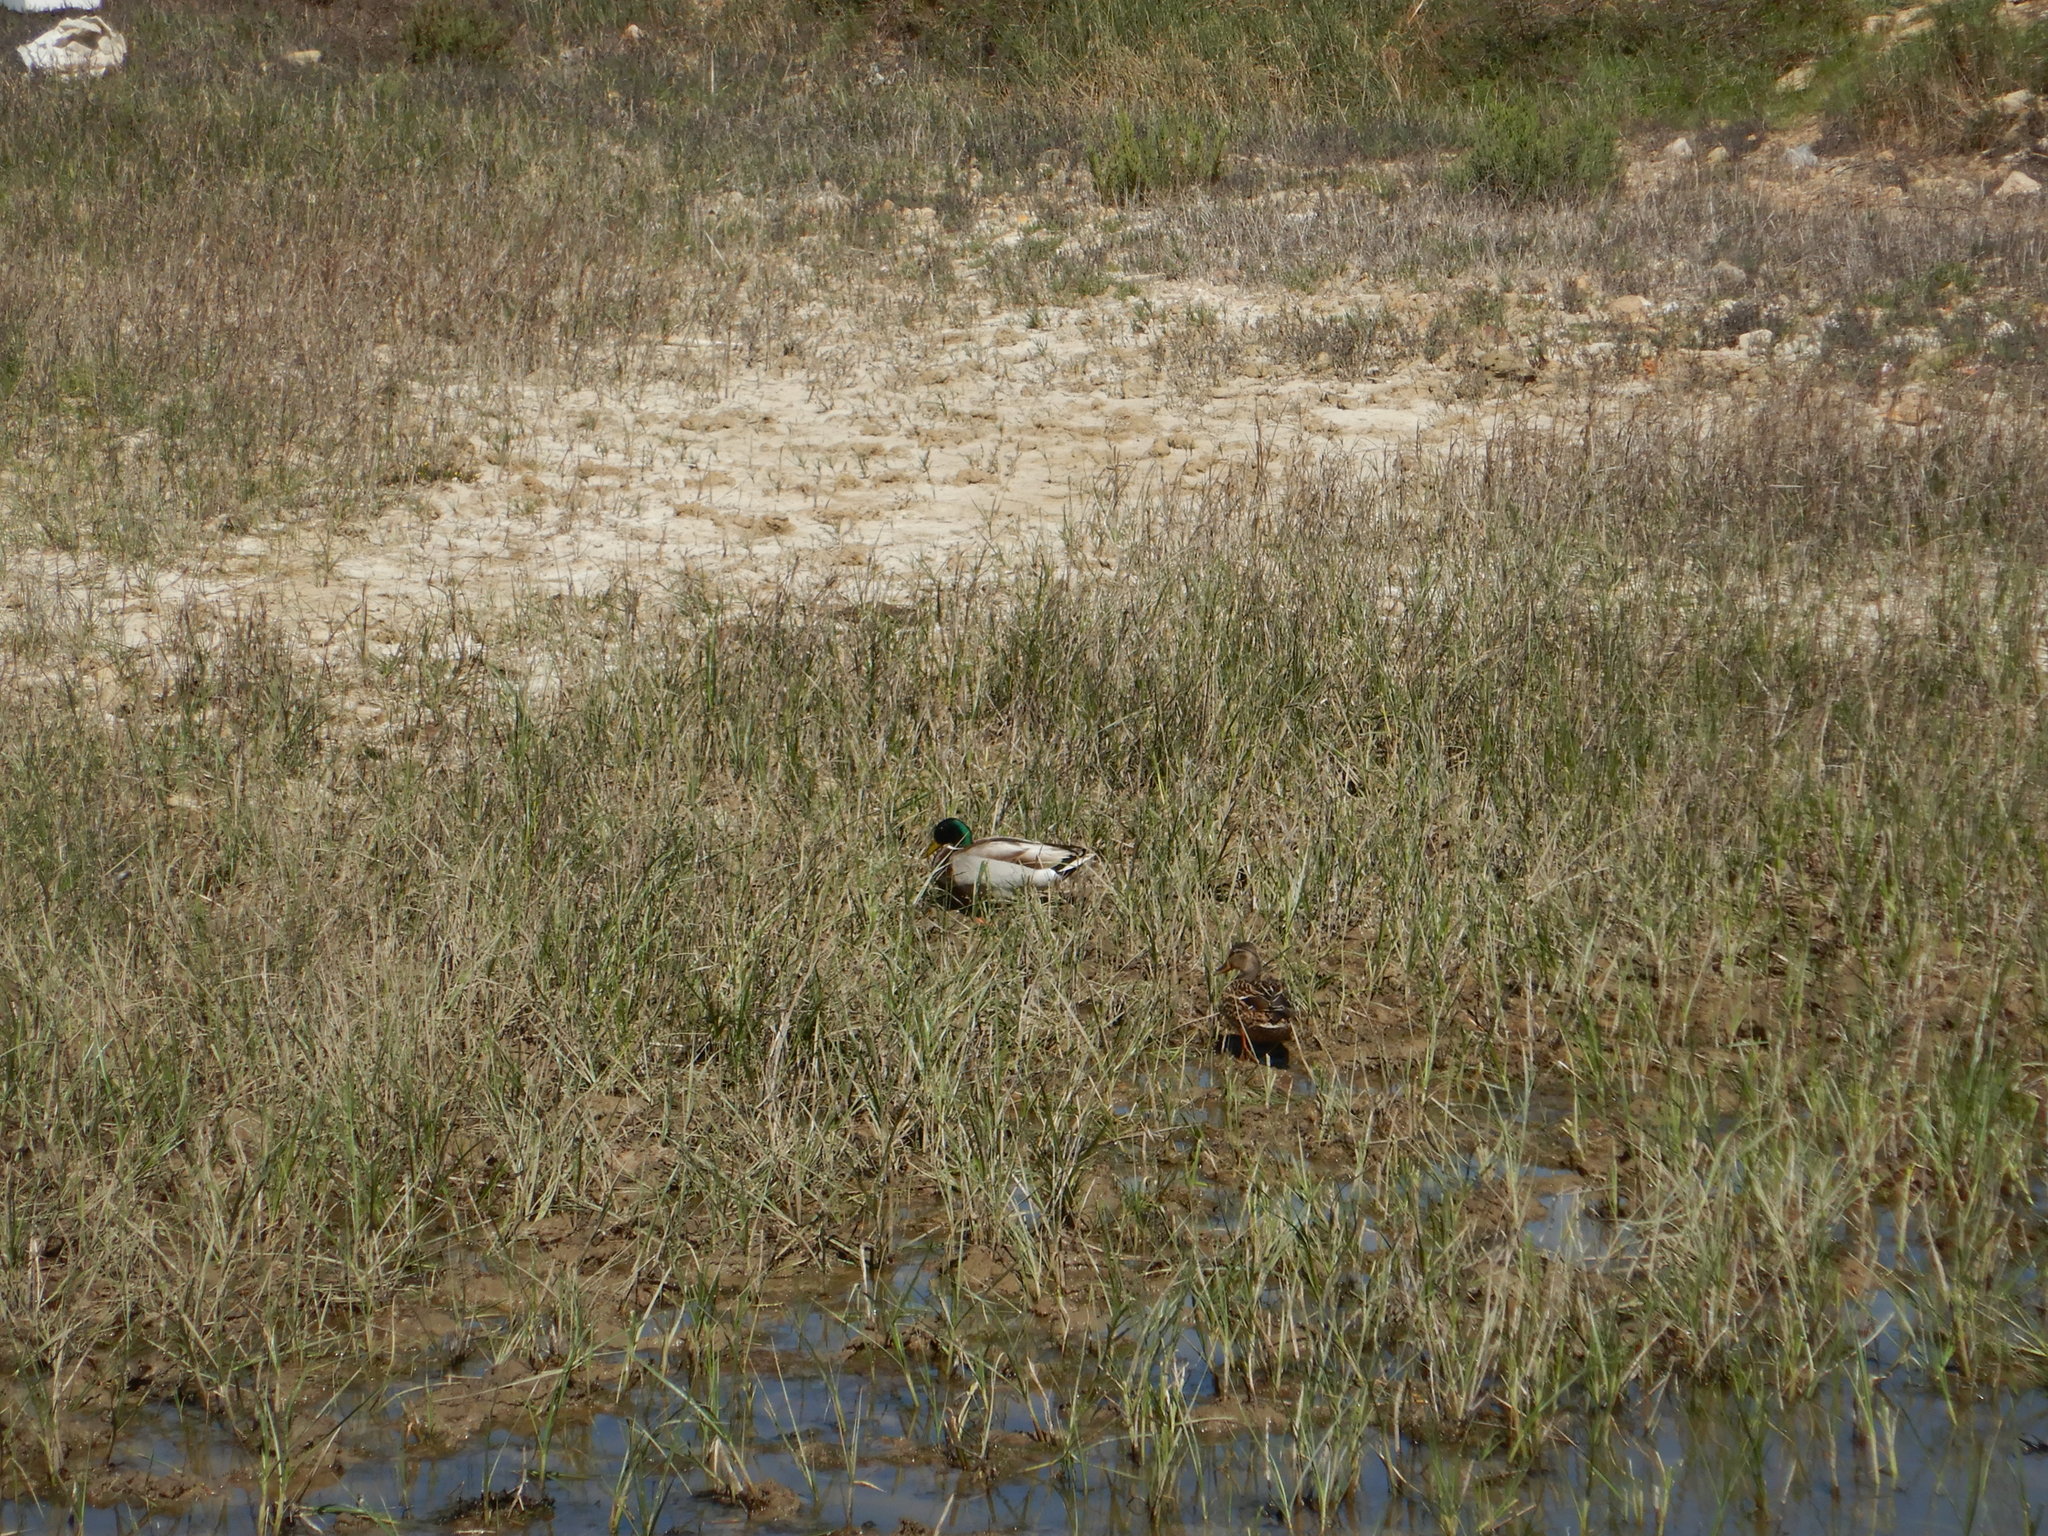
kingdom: Animalia
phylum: Chordata
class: Aves
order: Anseriformes
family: Anatidae
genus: Anas
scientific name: Anas platyrhynchos
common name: Mallard
